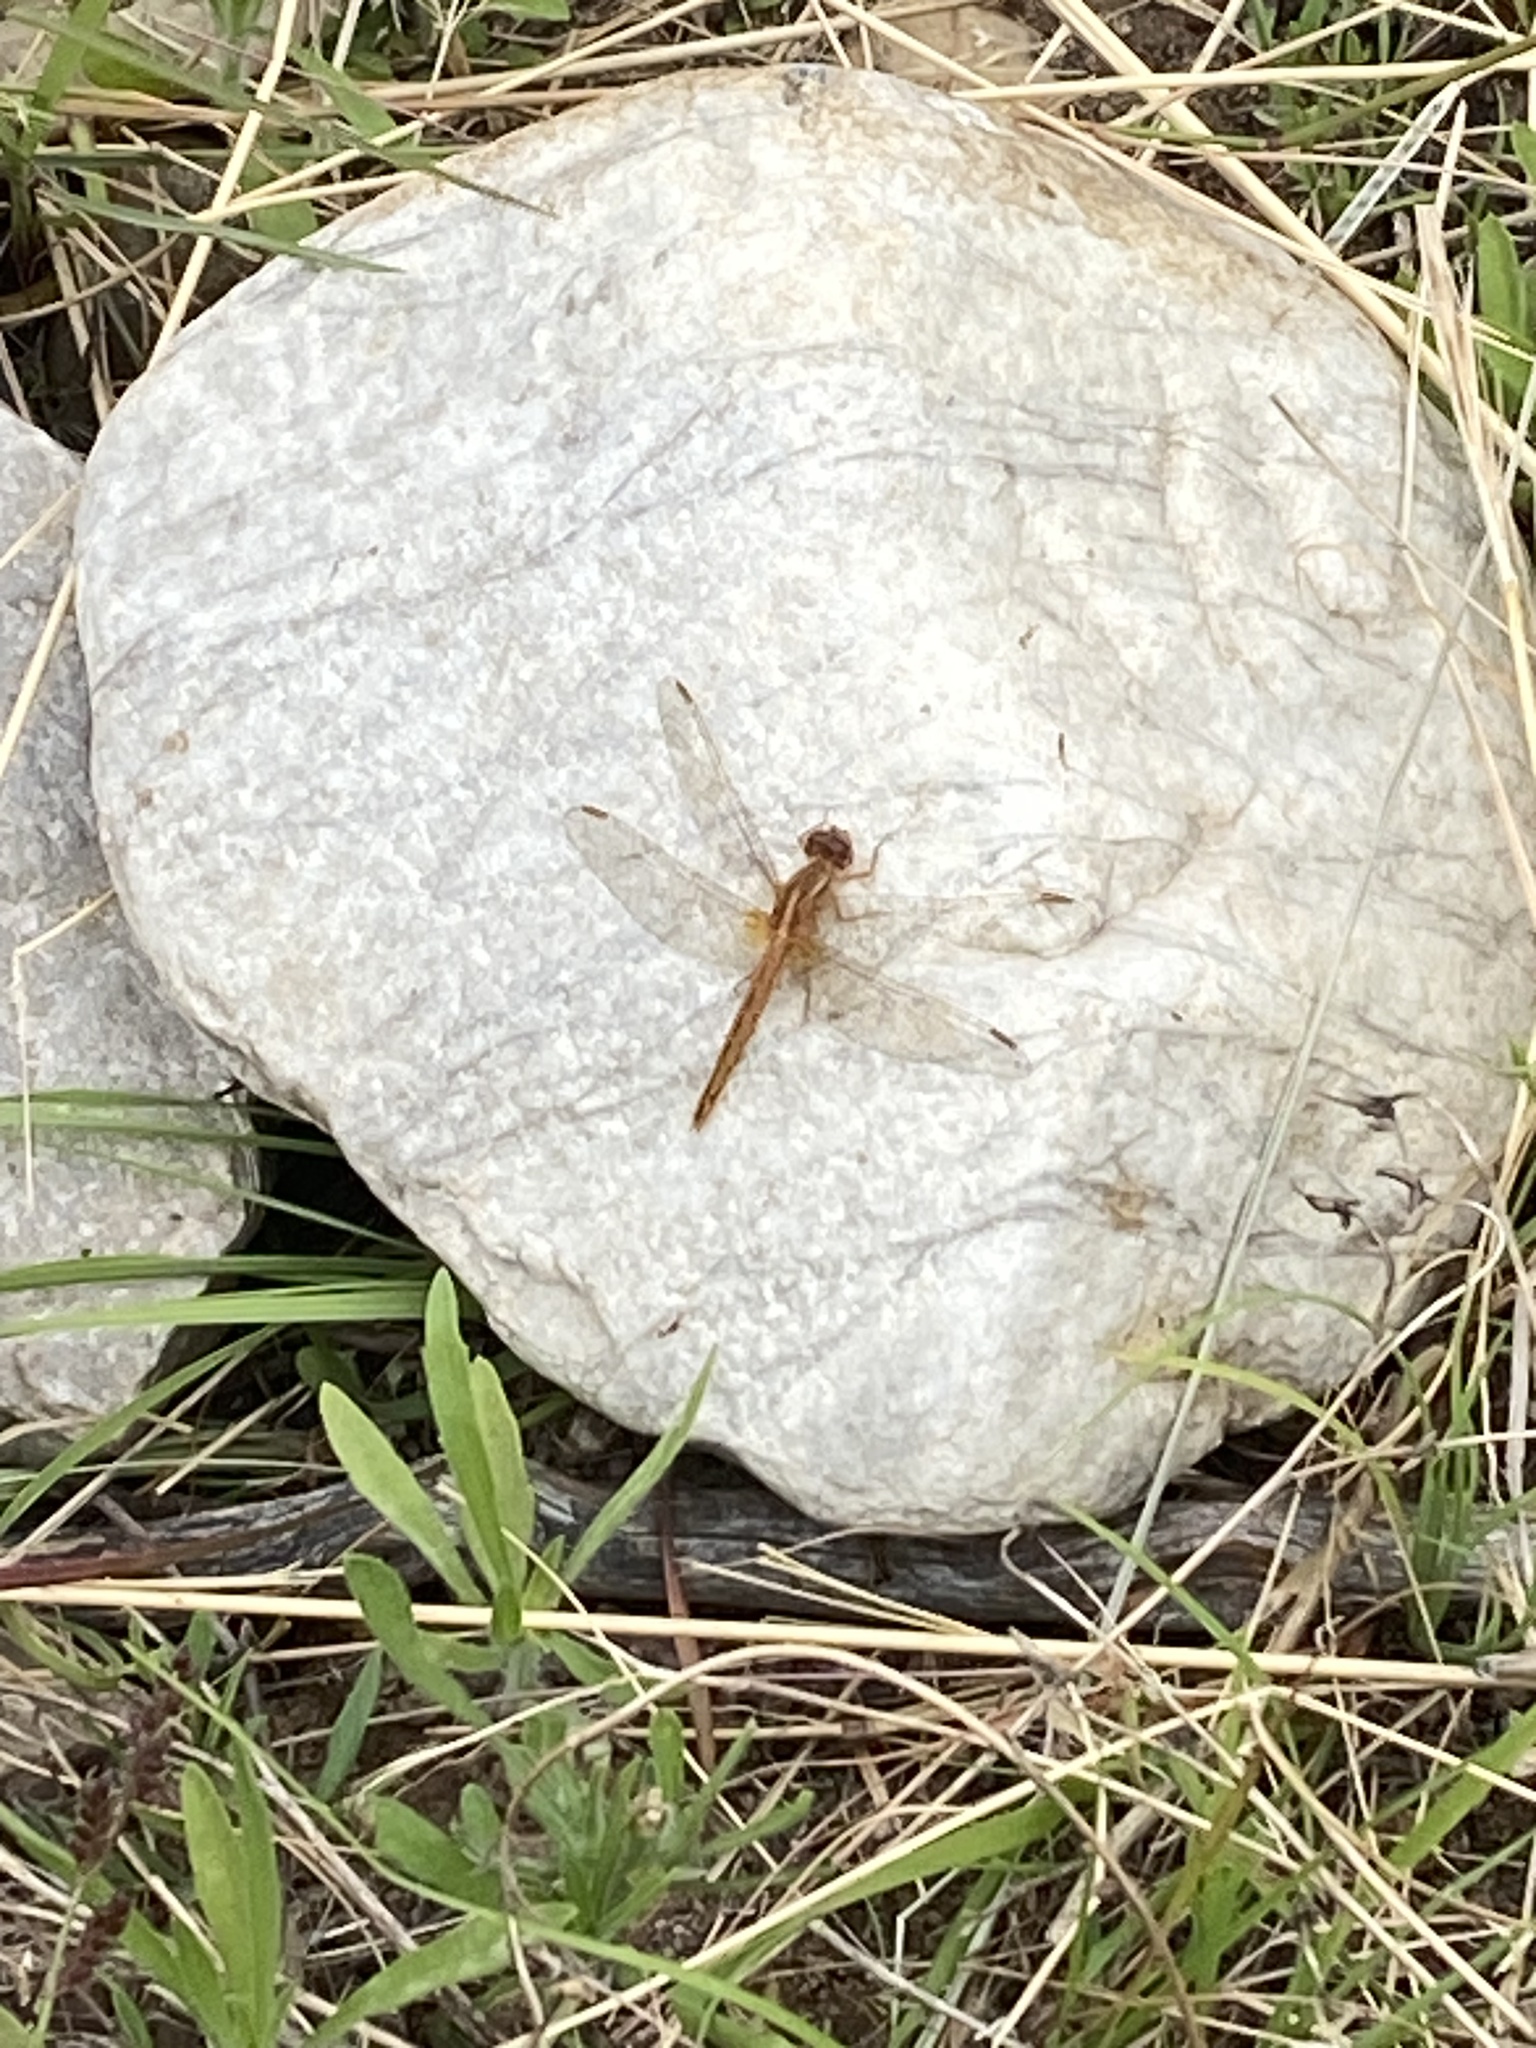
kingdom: Animalia
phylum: Arthropoda
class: Insecta
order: Odonata
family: Libellulidae
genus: Crocothemis
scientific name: Crocothemis sanguinolenta
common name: Little scarlet
